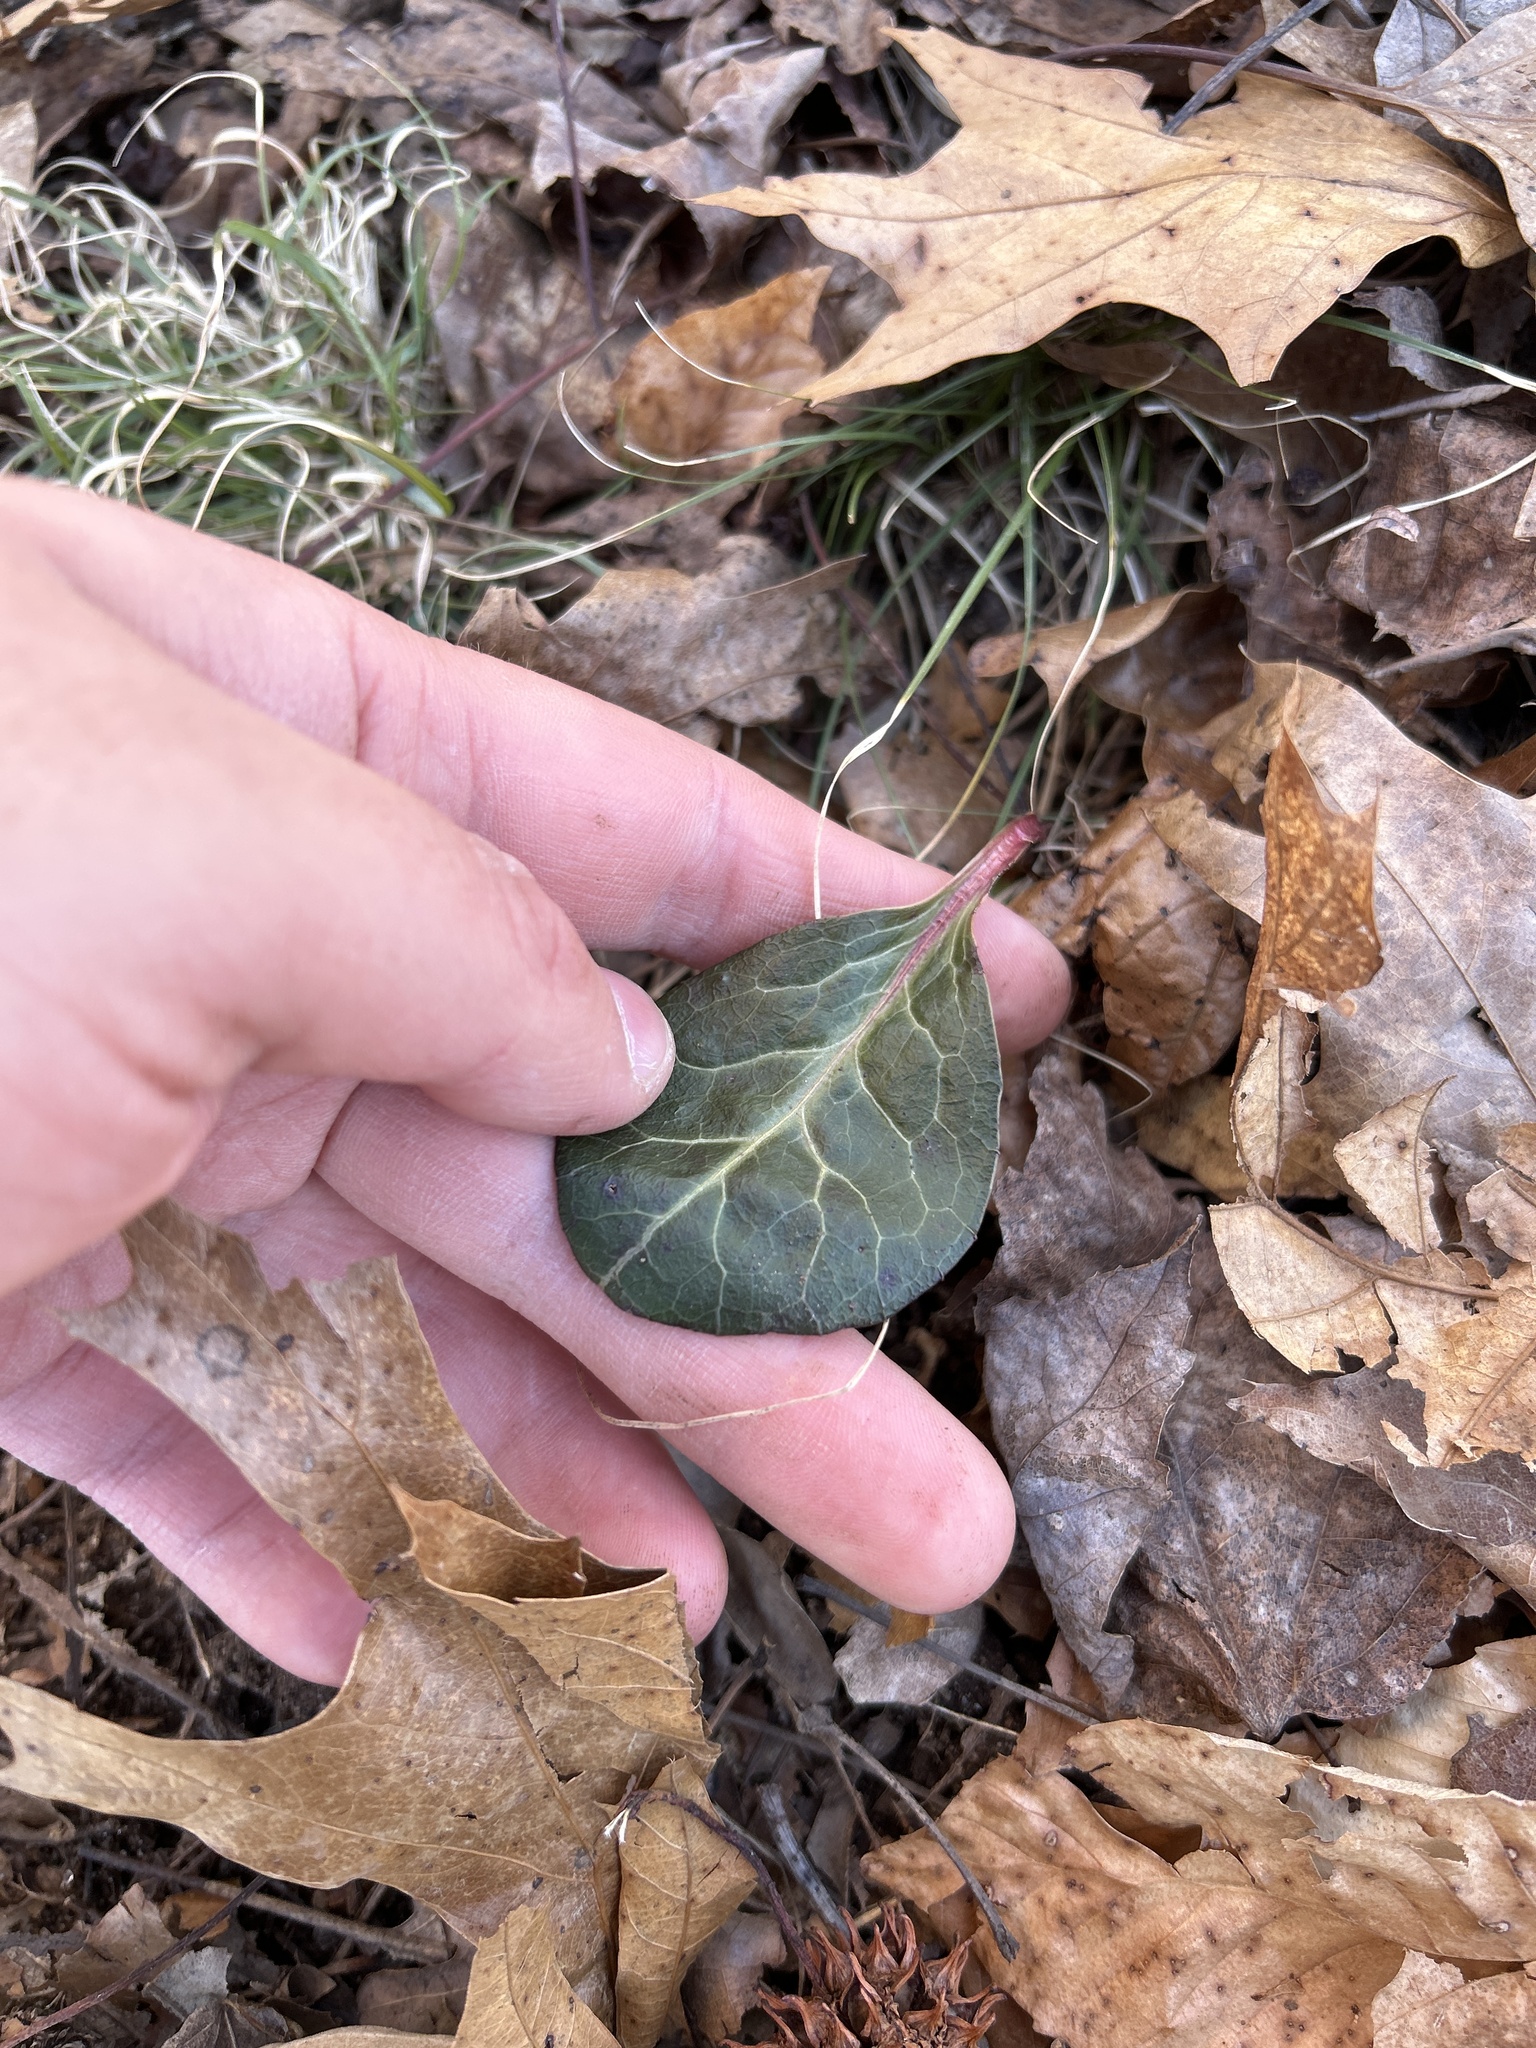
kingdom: Plantae
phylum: Tracheophyta
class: Magnoliopsida
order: Ericales
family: Ericaceae
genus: Pyrola
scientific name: Pyrola americana
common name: American wintergreen
